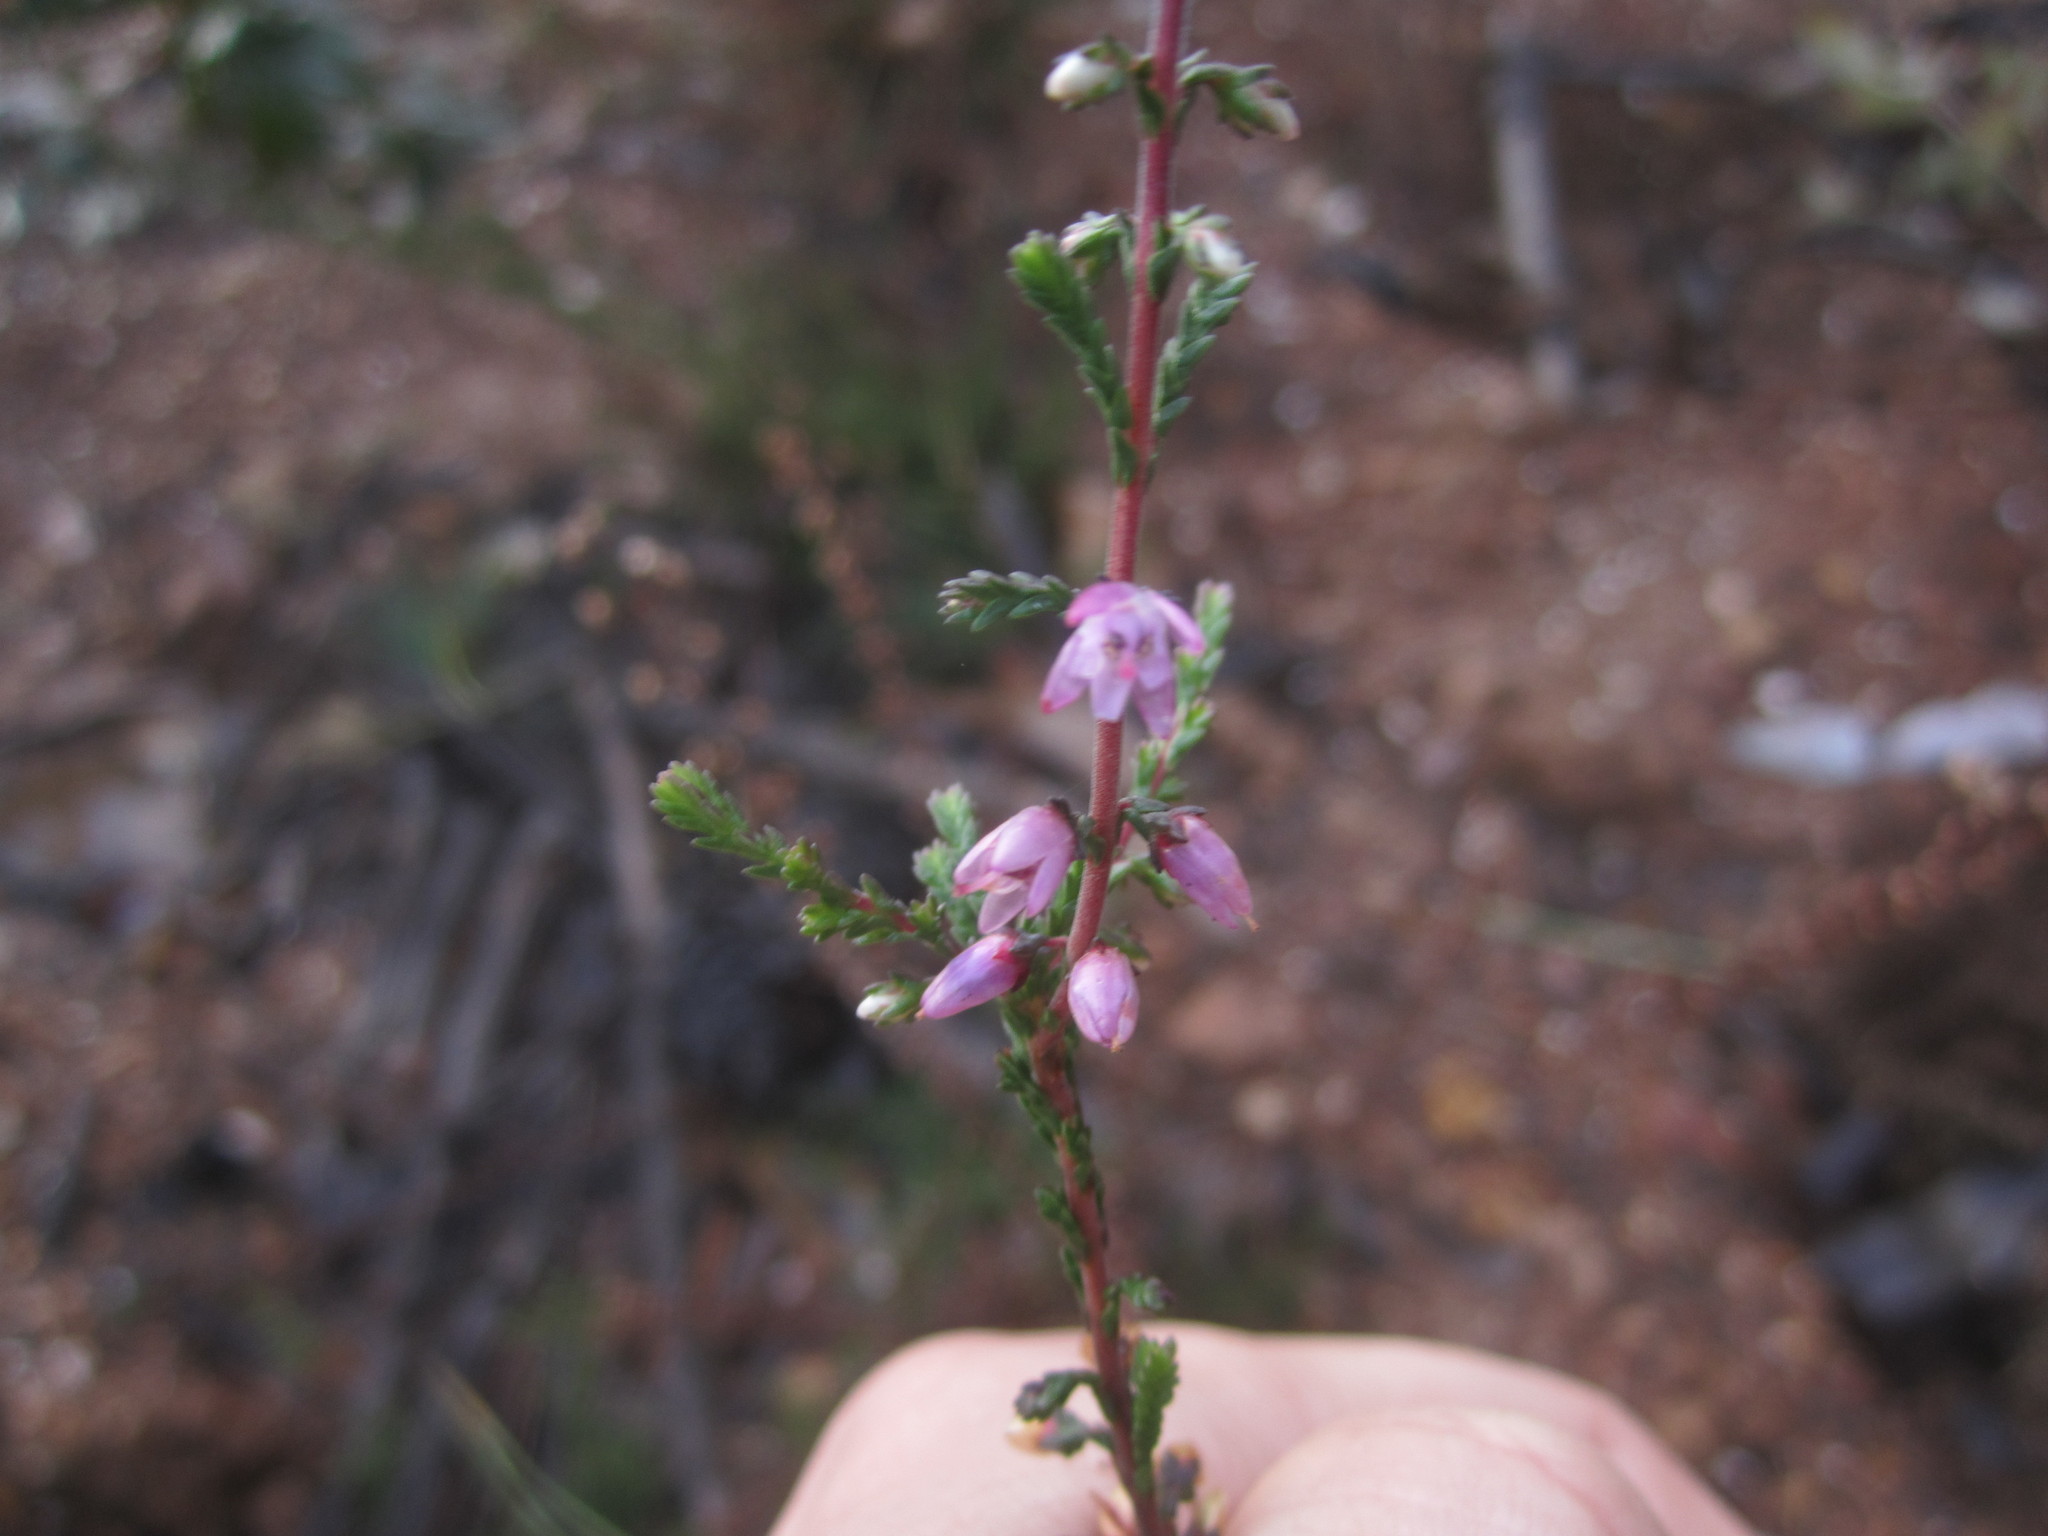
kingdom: Plantae
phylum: Tracheophyta
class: Magnoliopsida
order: Ericales
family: Ericaceae
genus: Calluna
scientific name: Calluna vulgaris
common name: Heather
